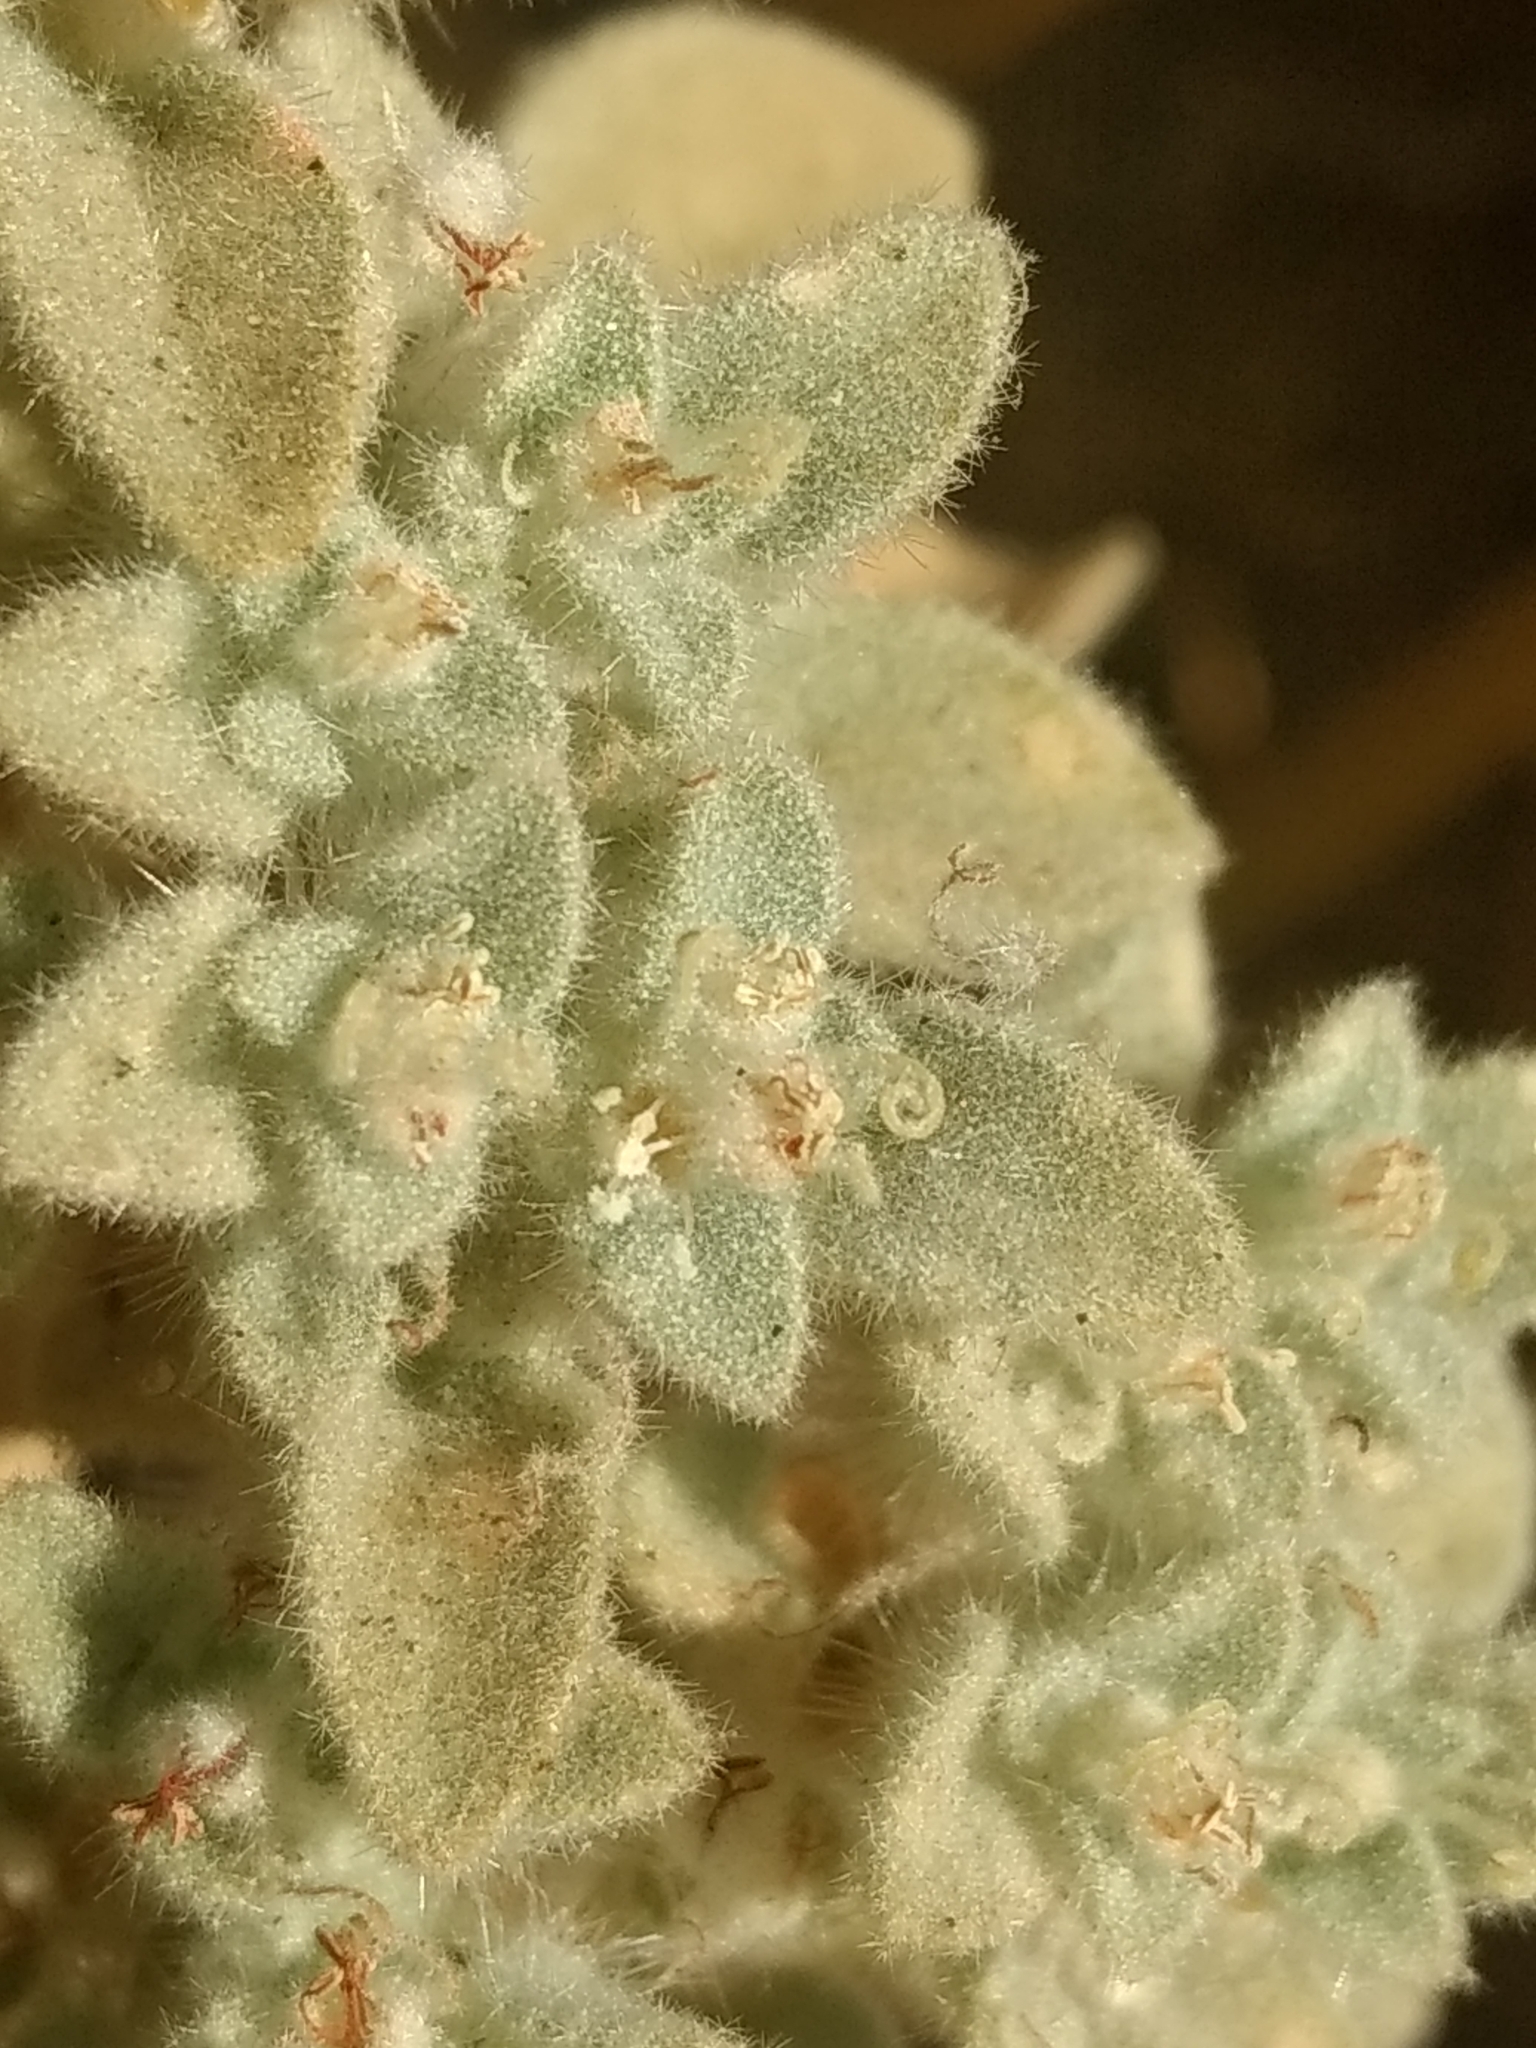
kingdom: Plantae
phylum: Tracheophyta
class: Magnoliopsida
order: Malpighiales
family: Euphorbiaceae
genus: Croton
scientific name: Croton setiger
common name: Dove weed
